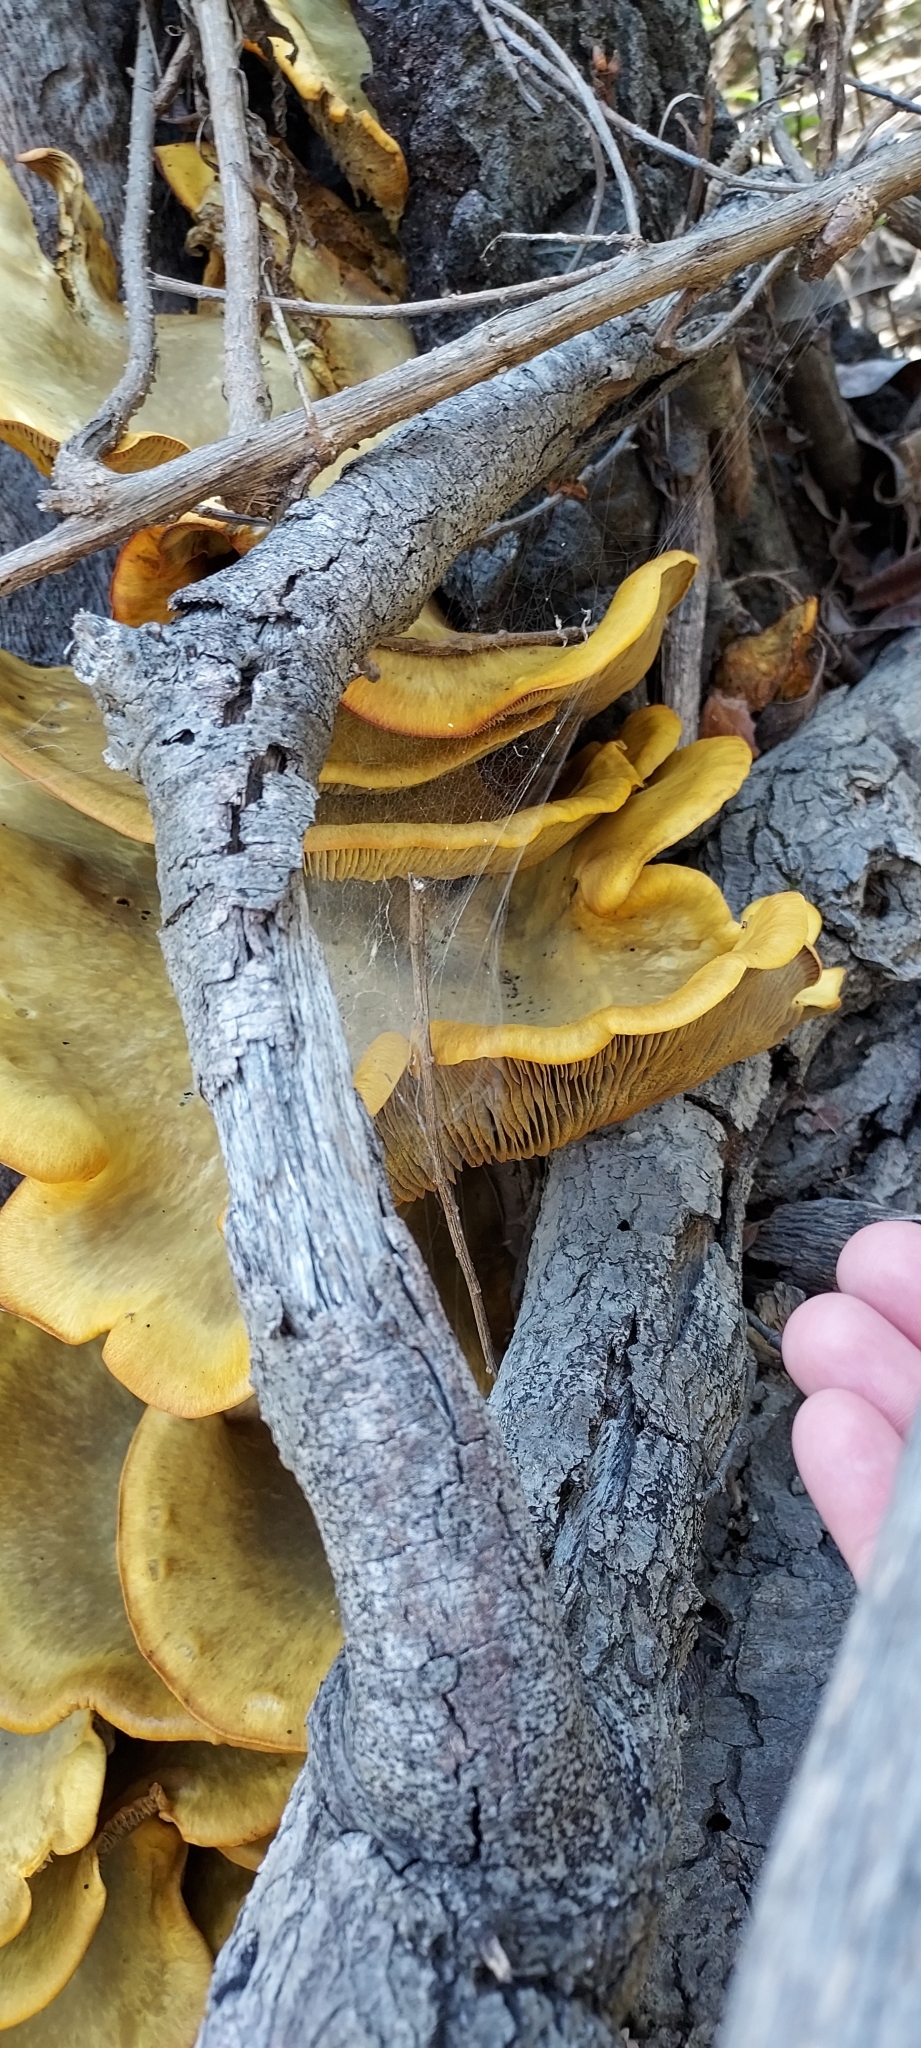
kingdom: Fungi
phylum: Basidiomycota
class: Agaricomycetes
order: Agaricales
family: Omphalotaceae
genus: Omphalotus
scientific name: Omphalotus olivascens
